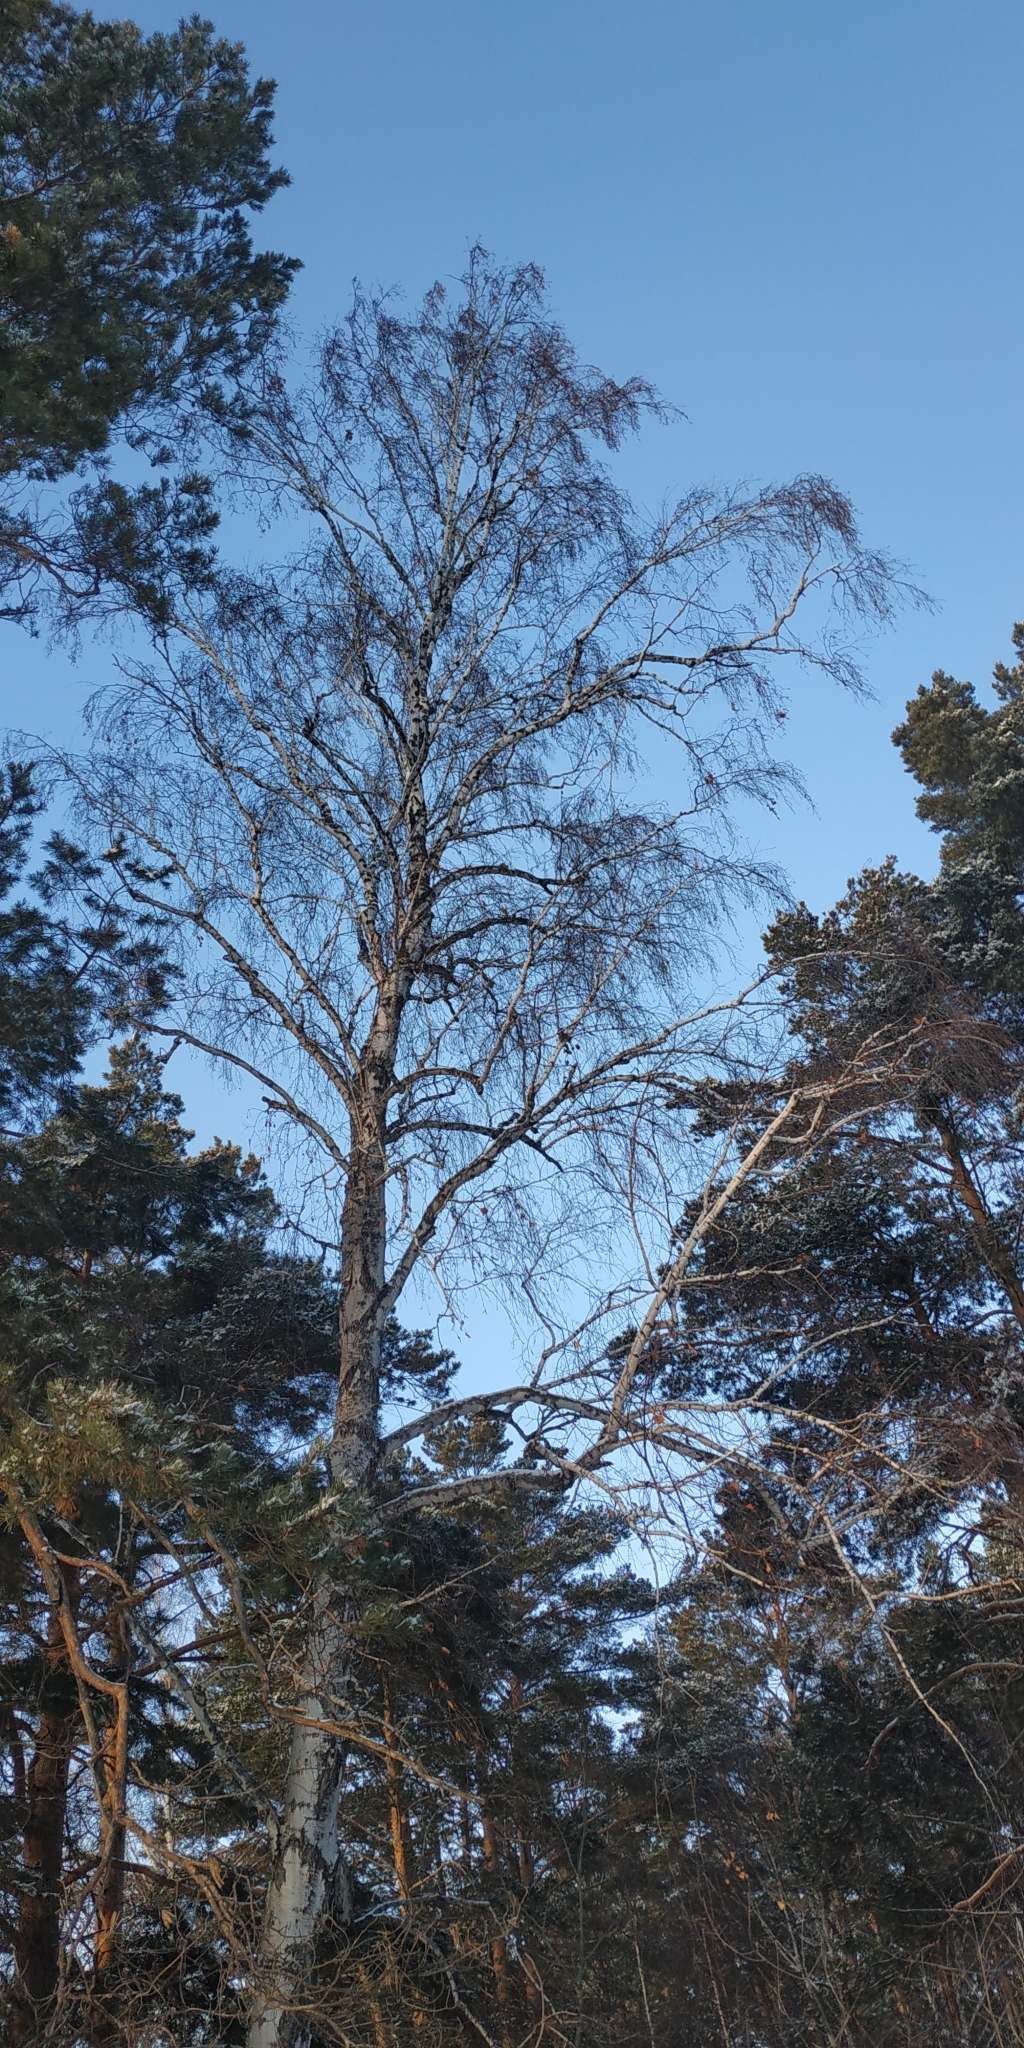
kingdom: Plantae
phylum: Tracheophyta
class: Magnoliopsida
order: Fagales
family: Betulaceae
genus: Betula
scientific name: Betula pendula
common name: Silver birch
